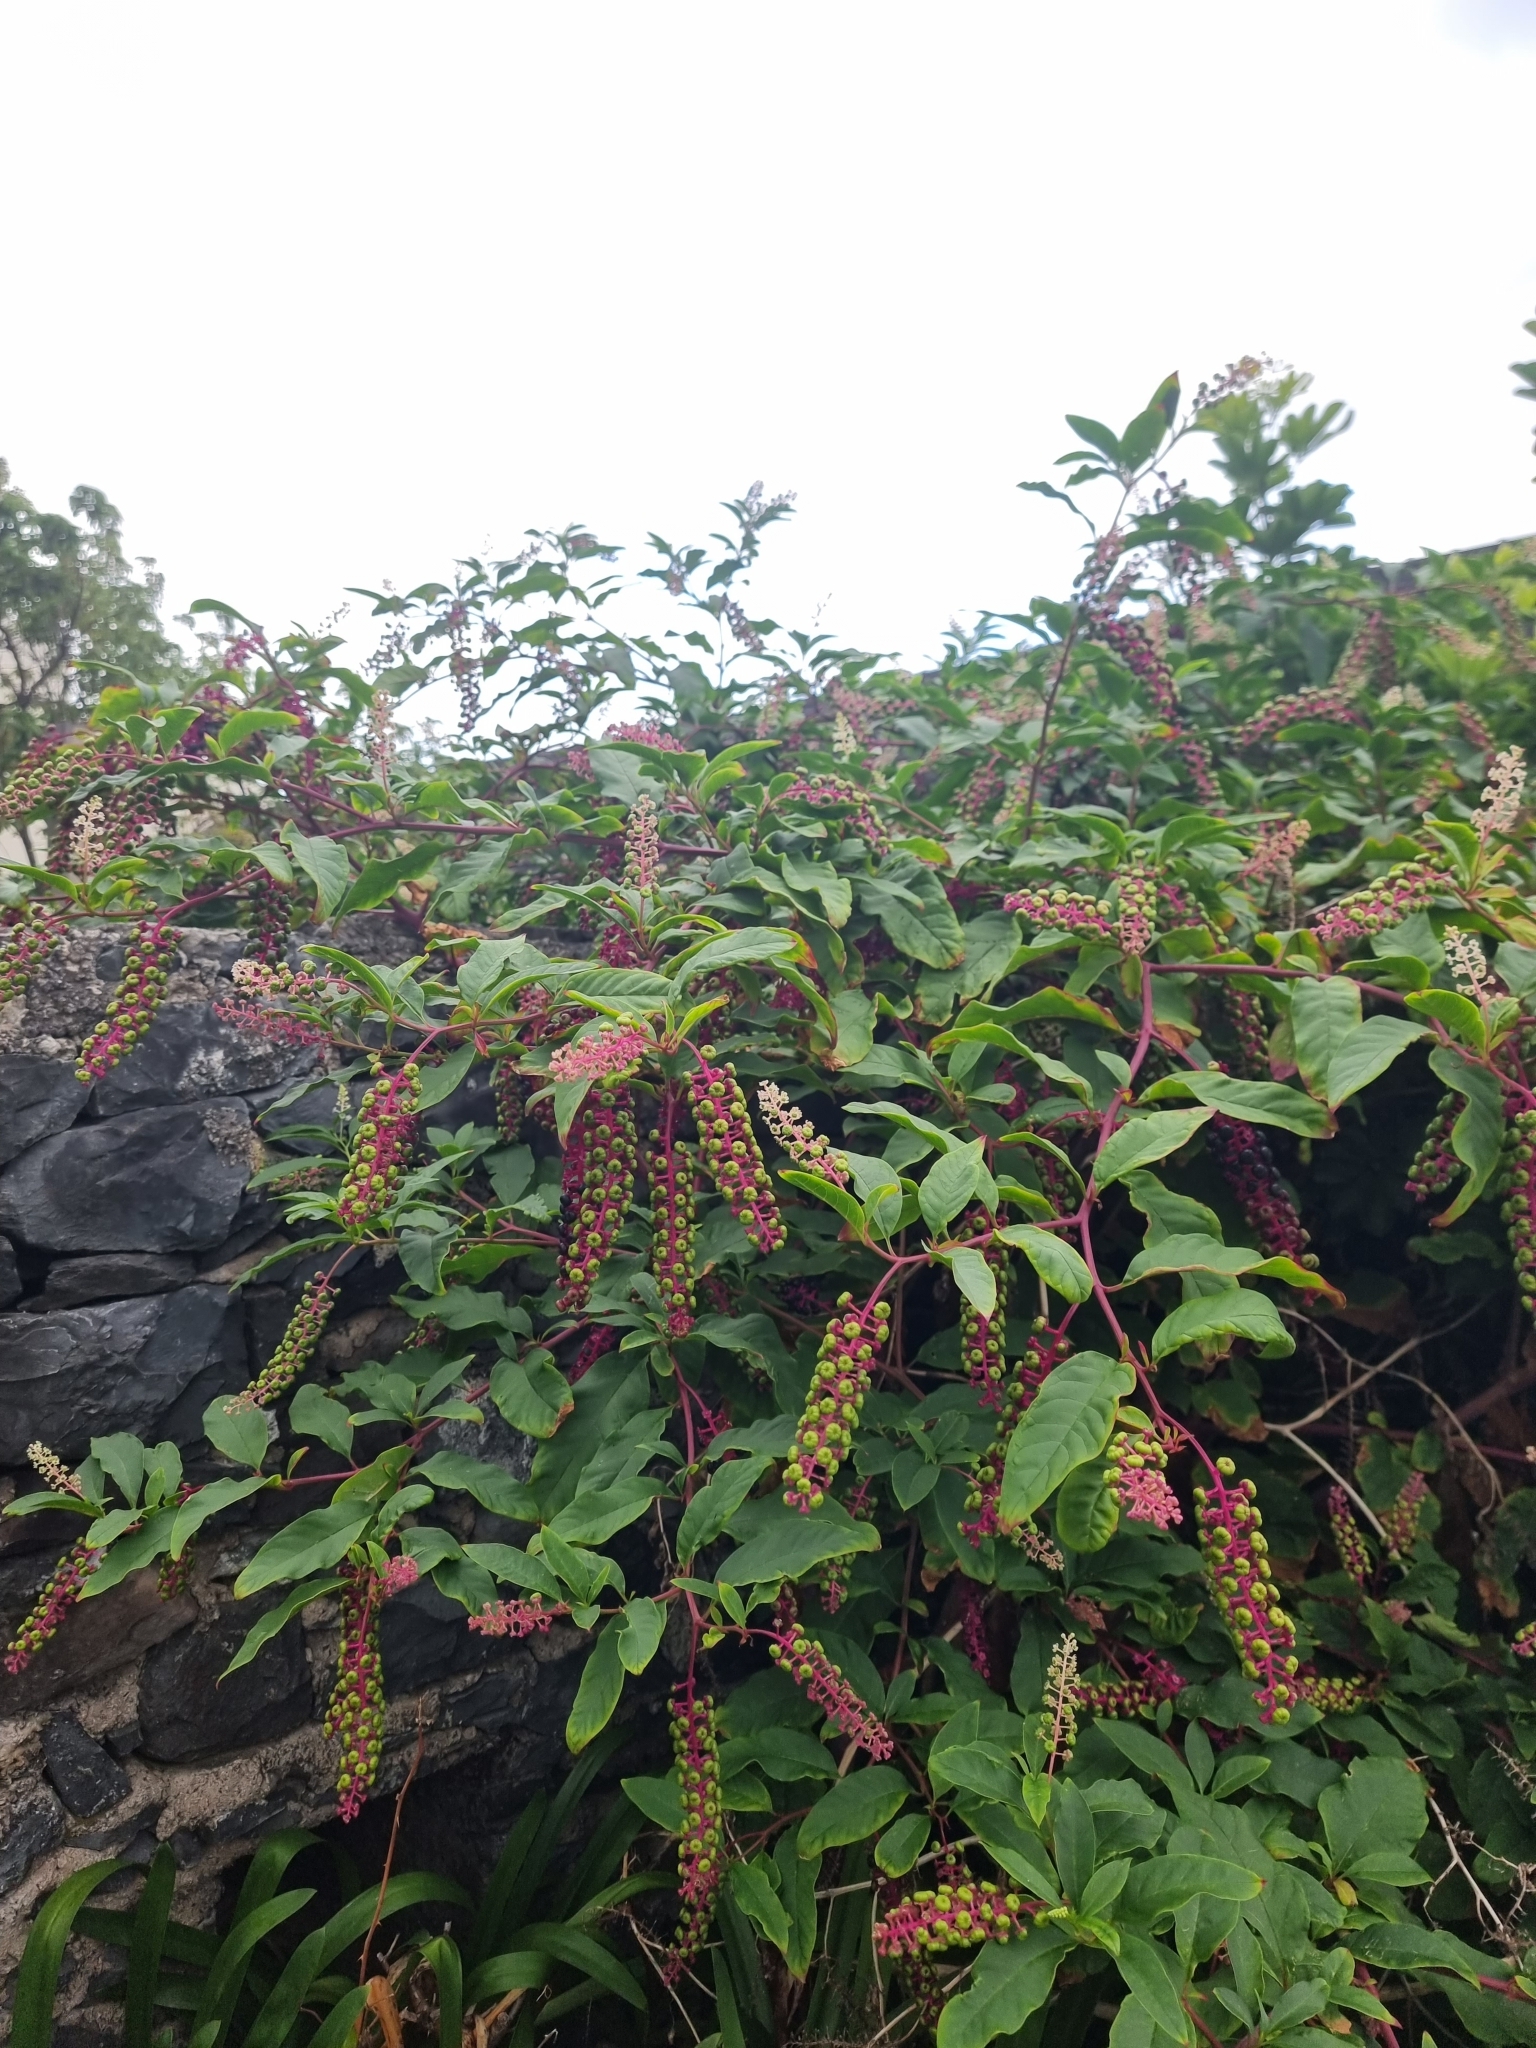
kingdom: Plantae
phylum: Tracheophyta
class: Magnoliopsida
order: Caryophyllales
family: Phytolaccaceae
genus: Phytolacca
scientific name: Phytolacca americana
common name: American pokeweed
